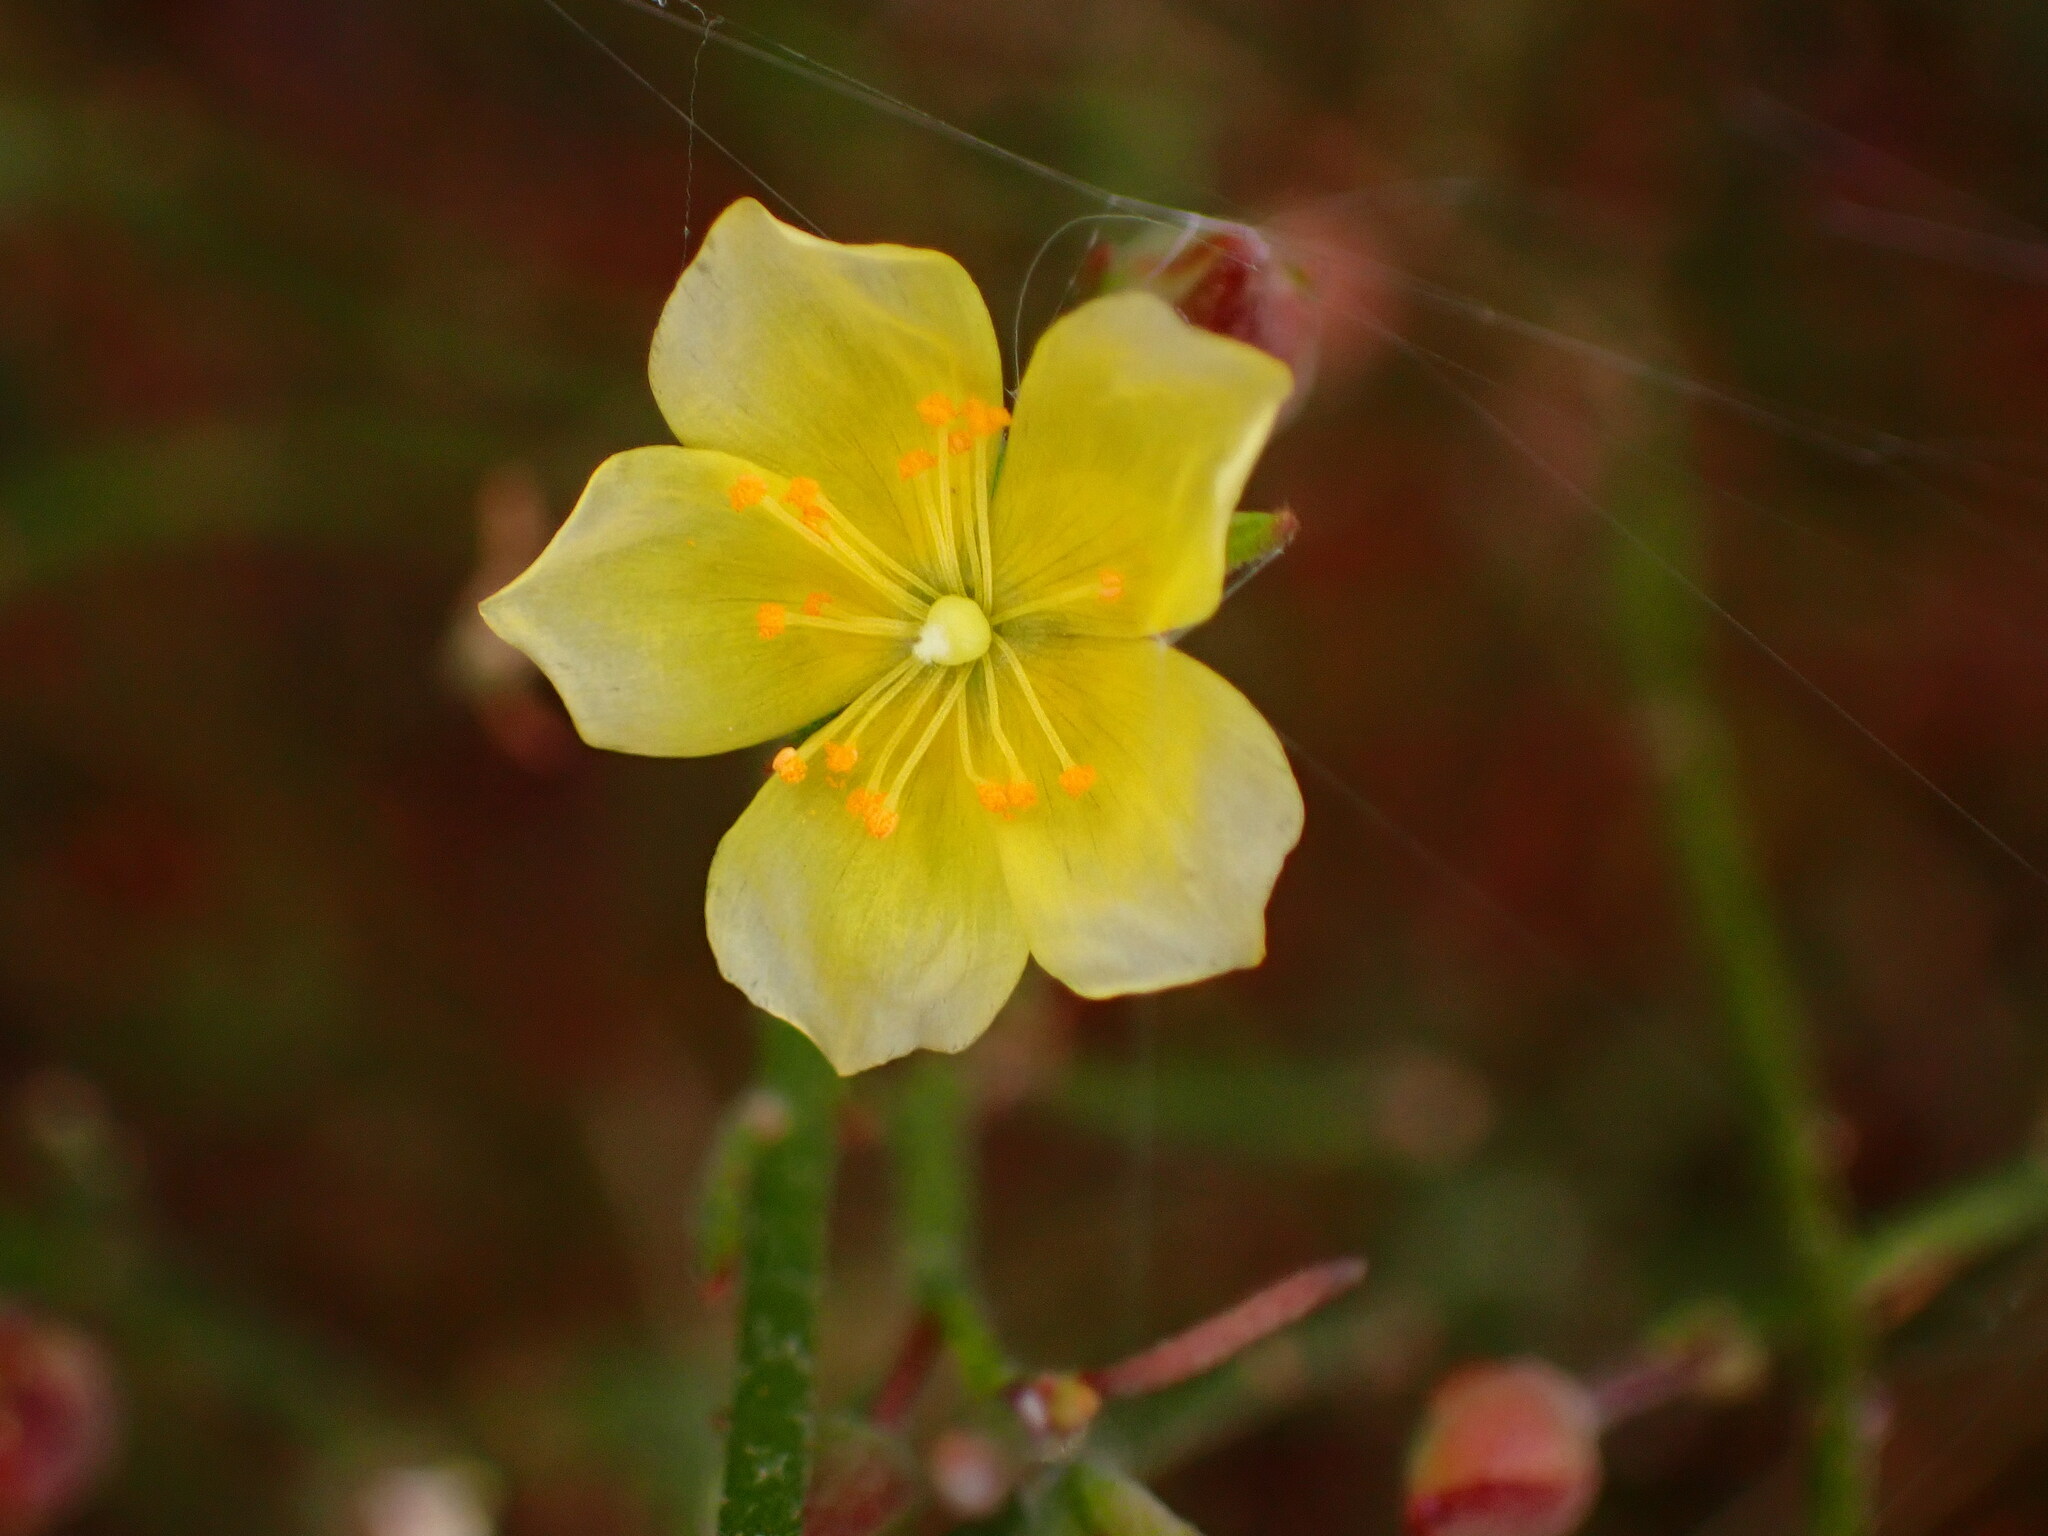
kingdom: Plantae
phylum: Tracheophyta
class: Magnoliopsida
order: Malvales
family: Cistaceae
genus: Crocanthemum
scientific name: Crocanthemum scoparium
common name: Broom-rose
